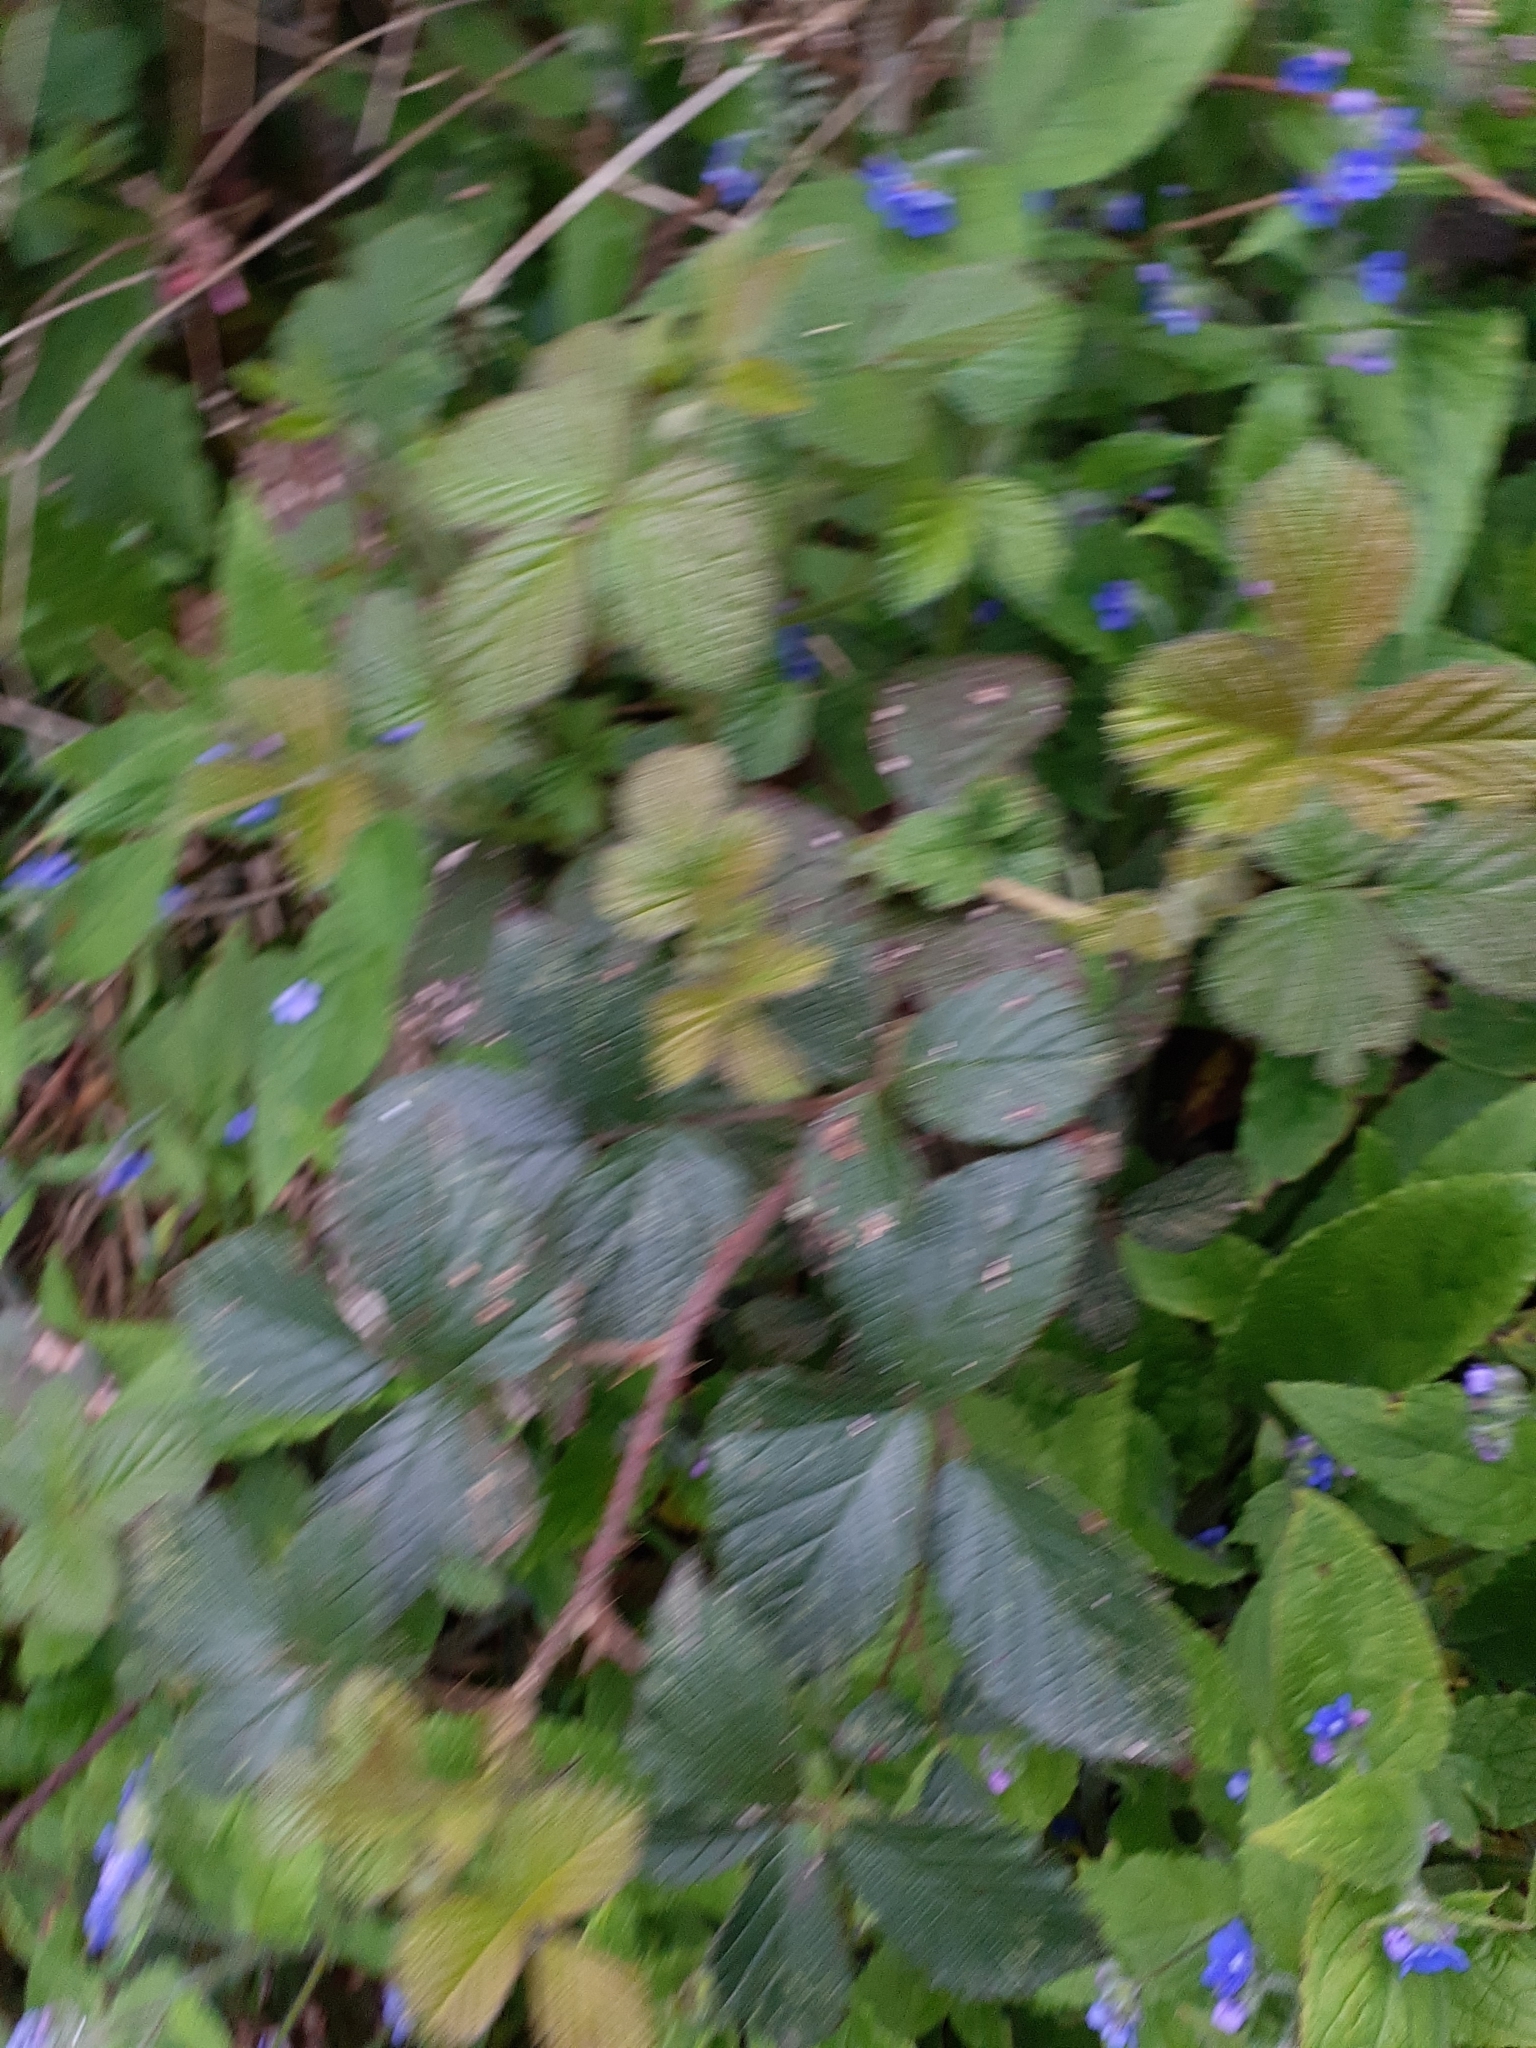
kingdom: Plantae
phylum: Tracheophyta
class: Magnoliopsida
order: Rosales
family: Rosaceae
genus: Rubus
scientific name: Rubus
